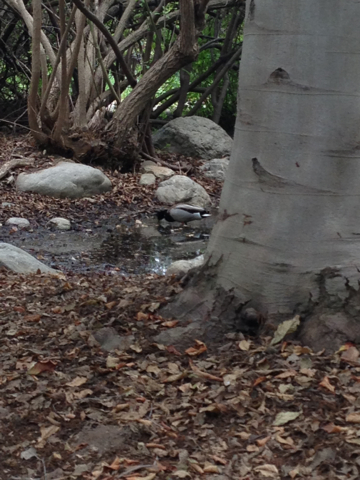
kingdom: Animalia
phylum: Chordata
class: Aves
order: Anseriformes
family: Anatidae
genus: Anas
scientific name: Anas platyrhynchos
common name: Mallard
